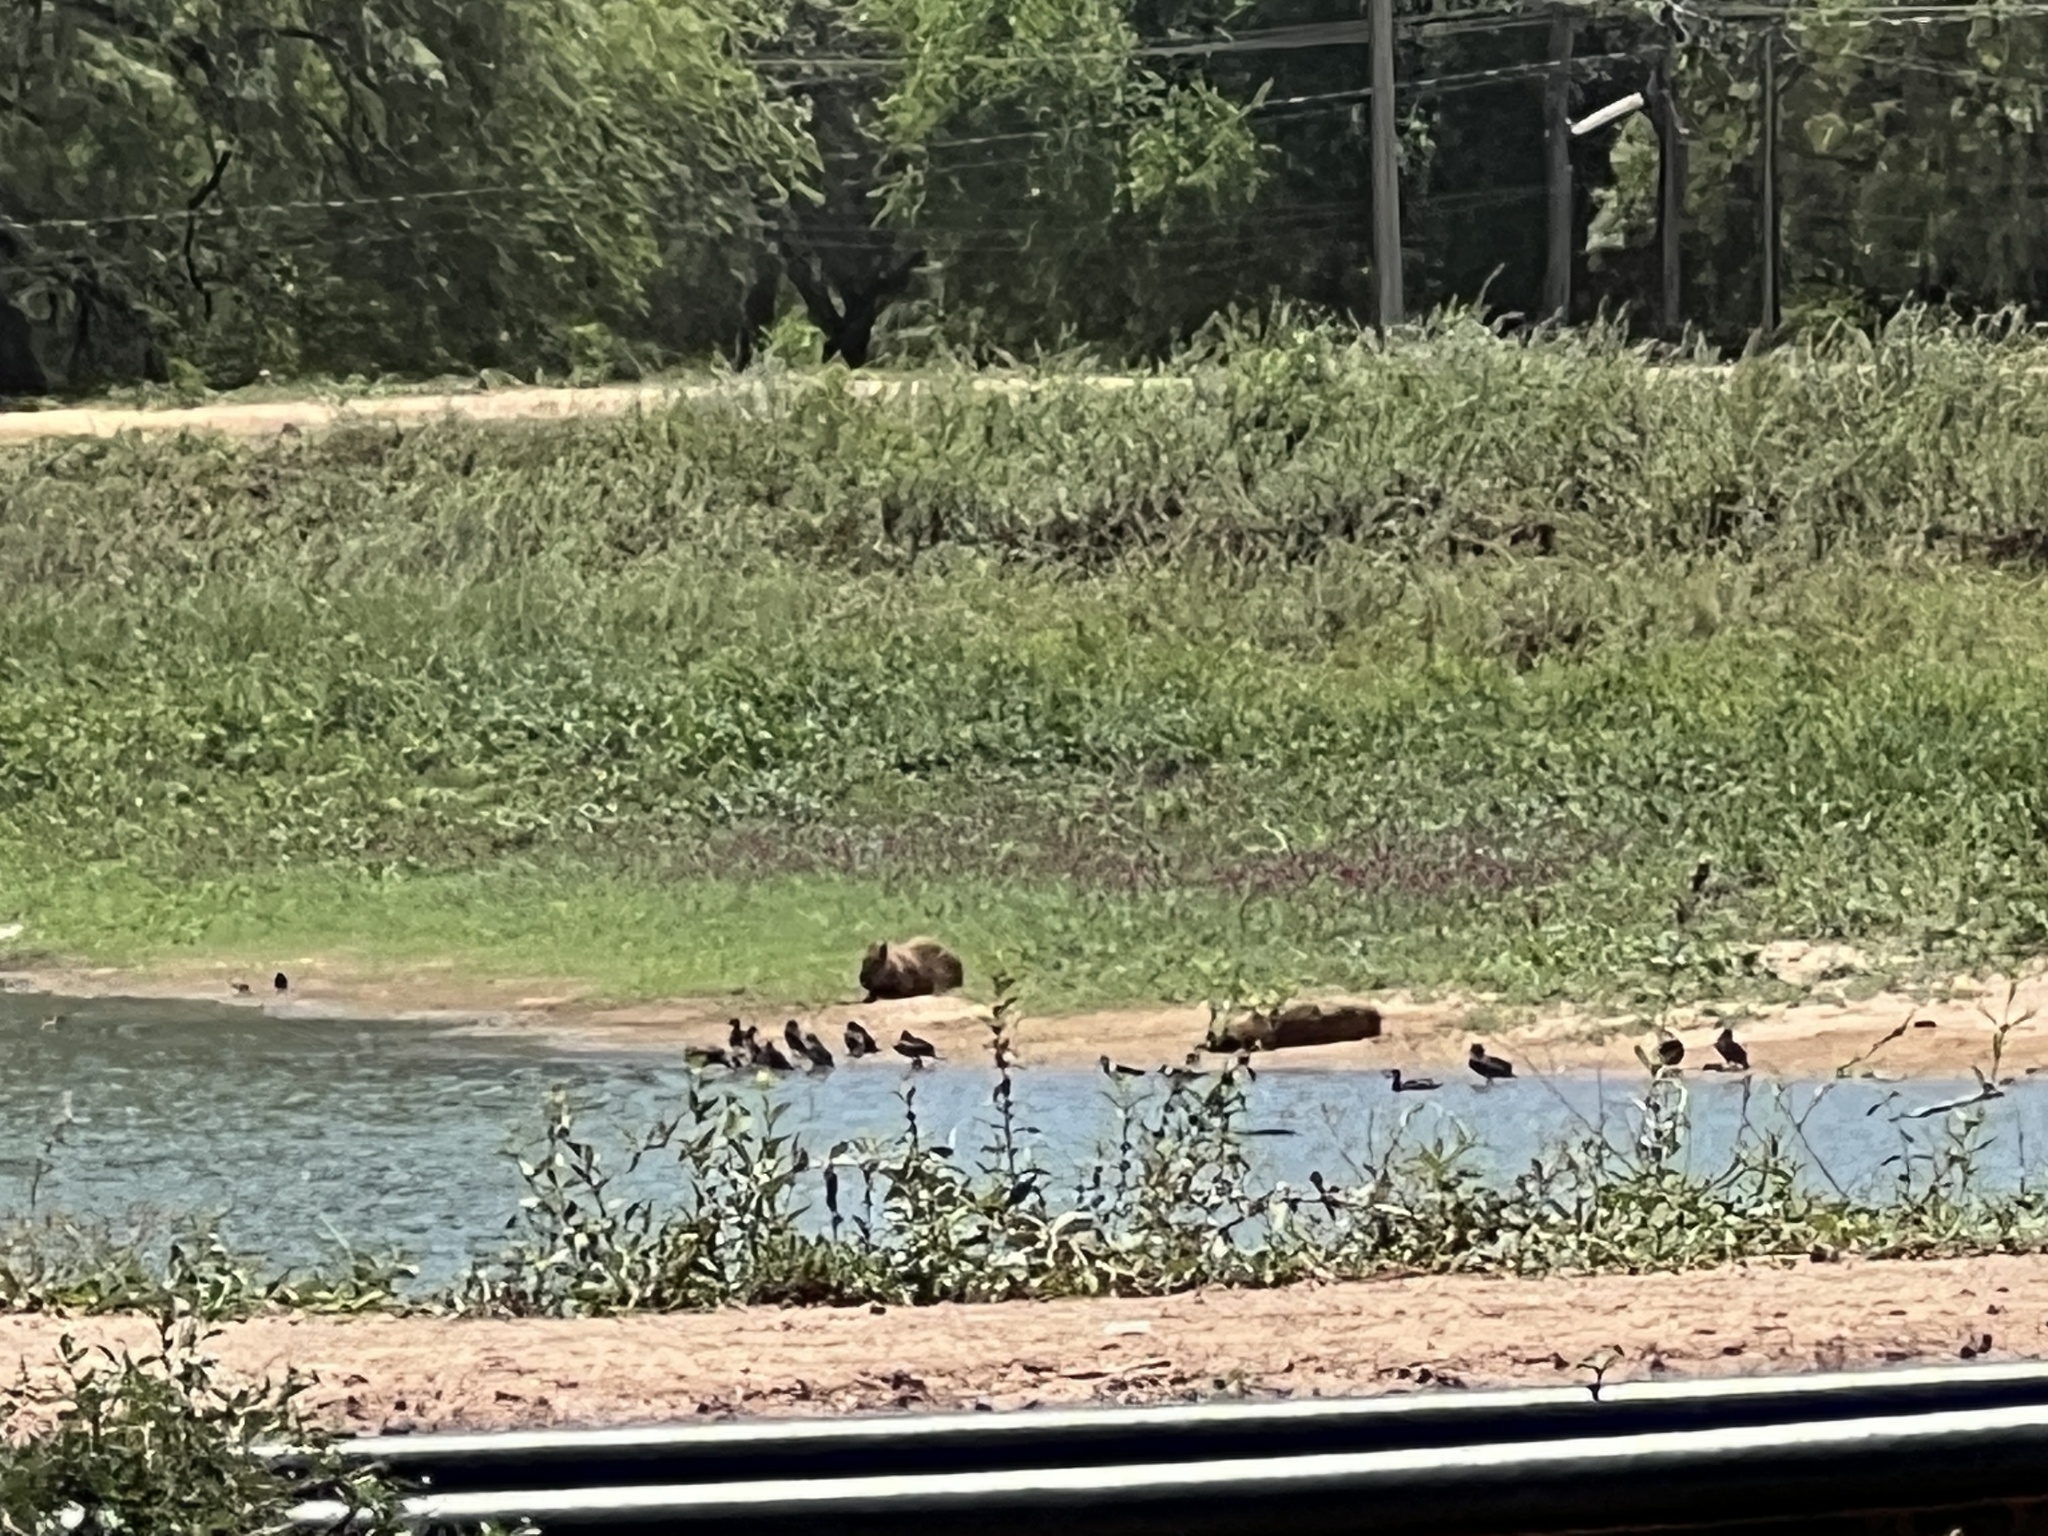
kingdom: Animalia
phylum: Chordata
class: Mammalia
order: Rodentia
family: Caviidae
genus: Hydrochoerus
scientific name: Hydrochoerus hydrochaeris
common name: Capybara
